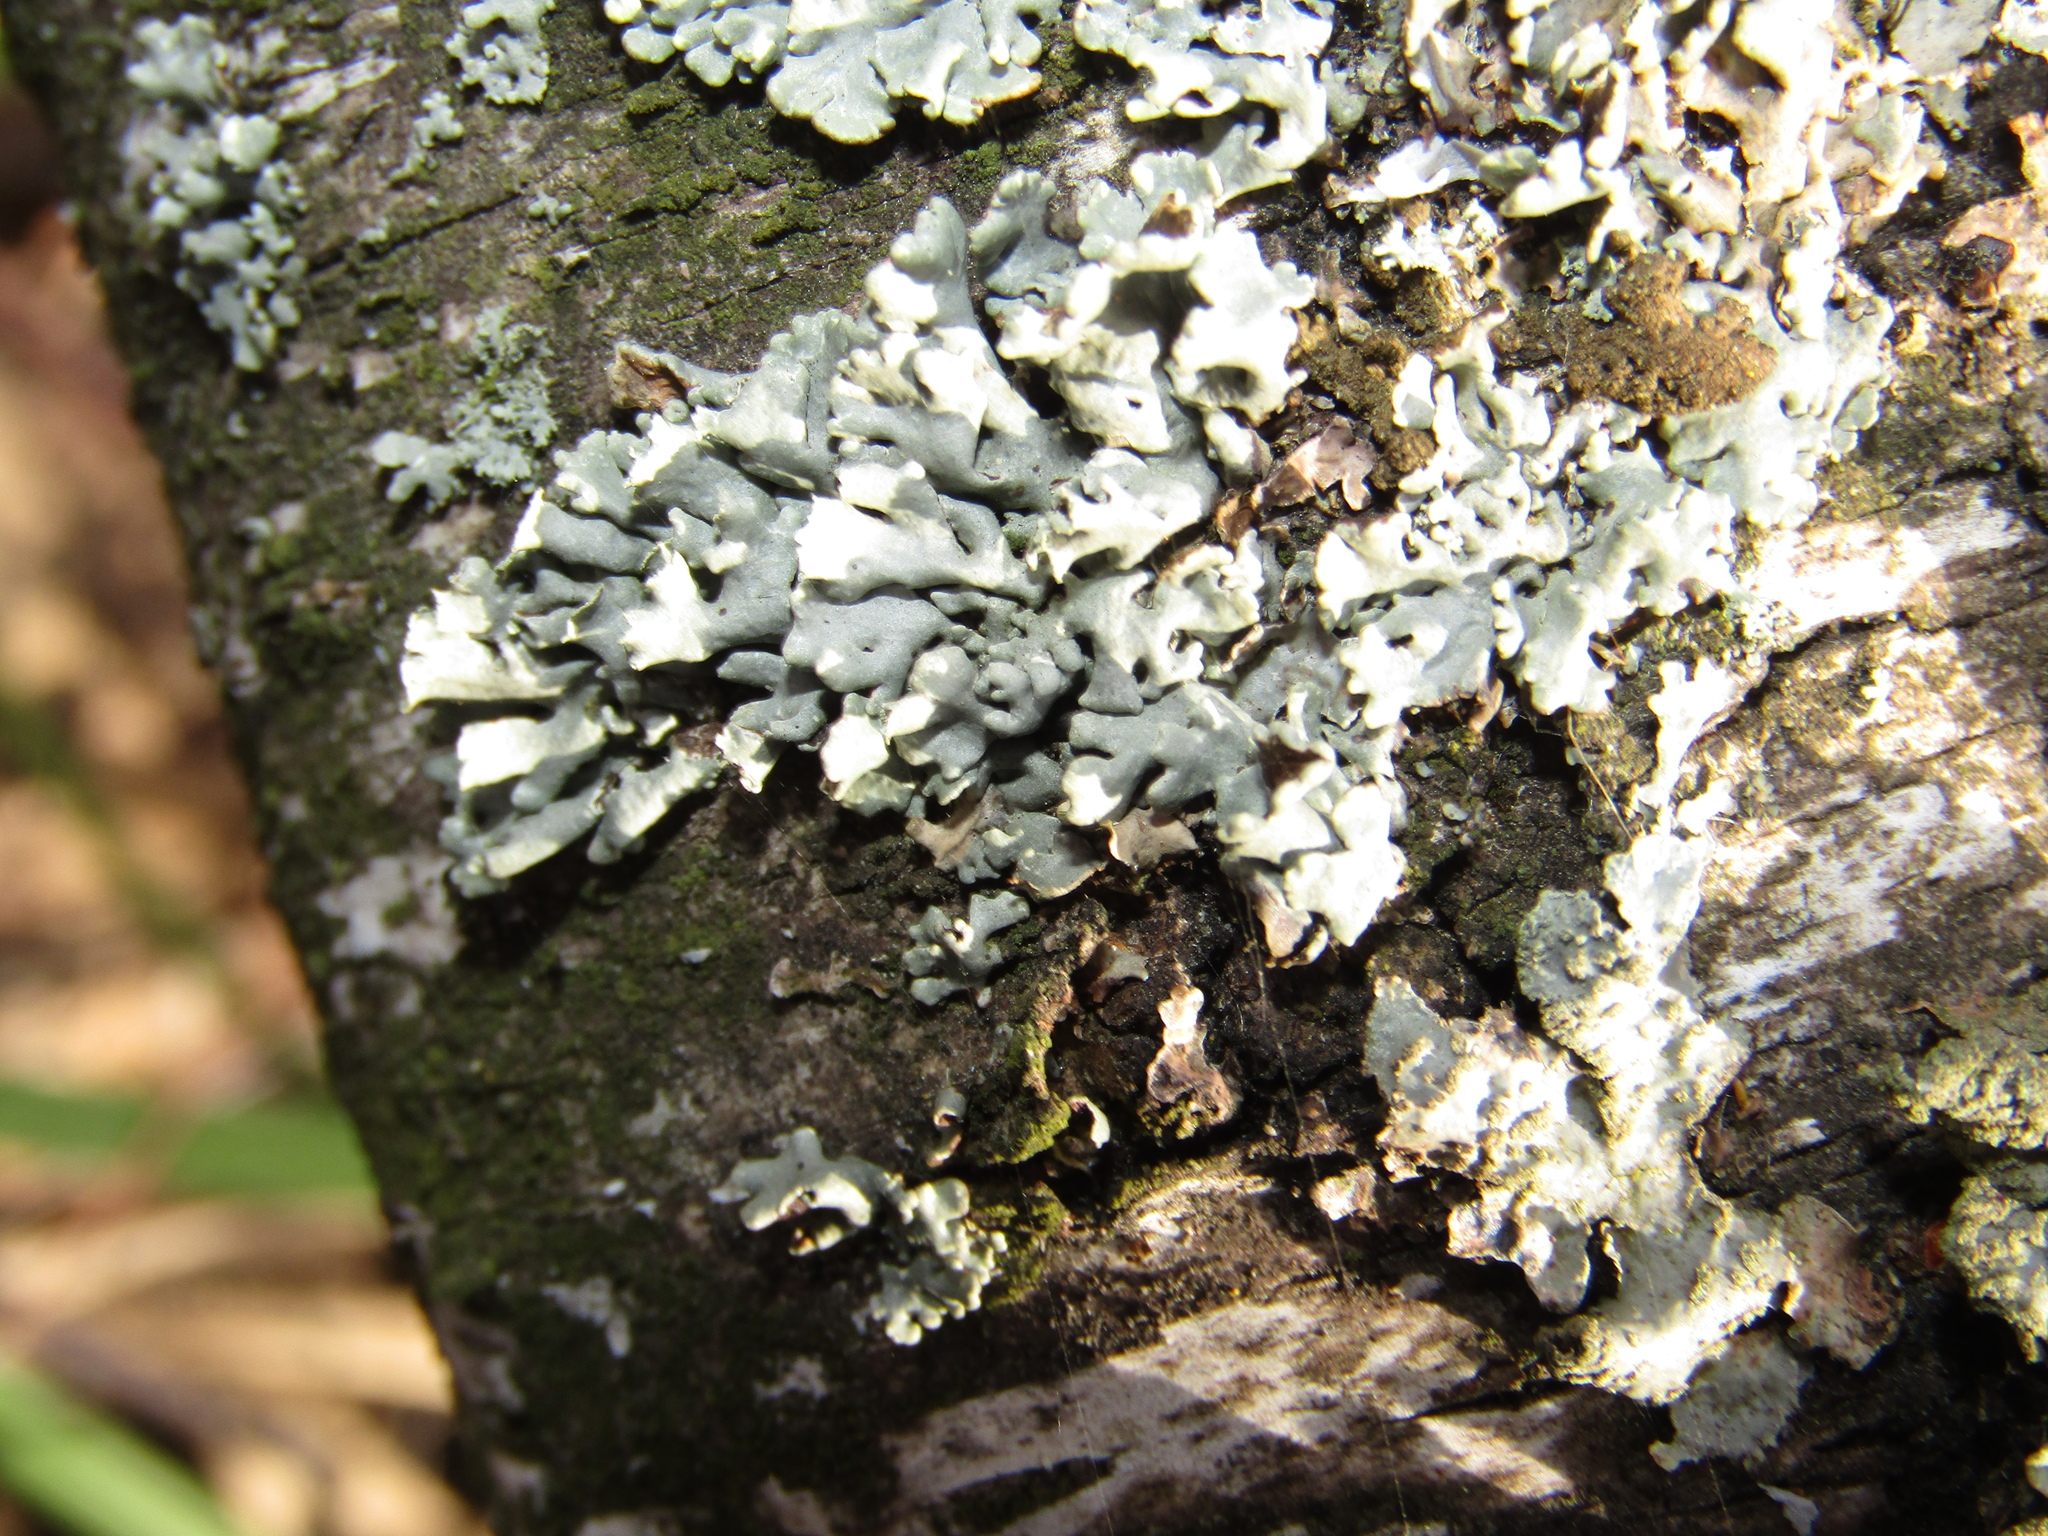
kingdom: Fungi
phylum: Ascomycota
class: Lecanoromycetes
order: Lecanorales
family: Parmeliaceae
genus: Hypogymnia
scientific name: Hypogymnia physodes
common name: Dark crottle
